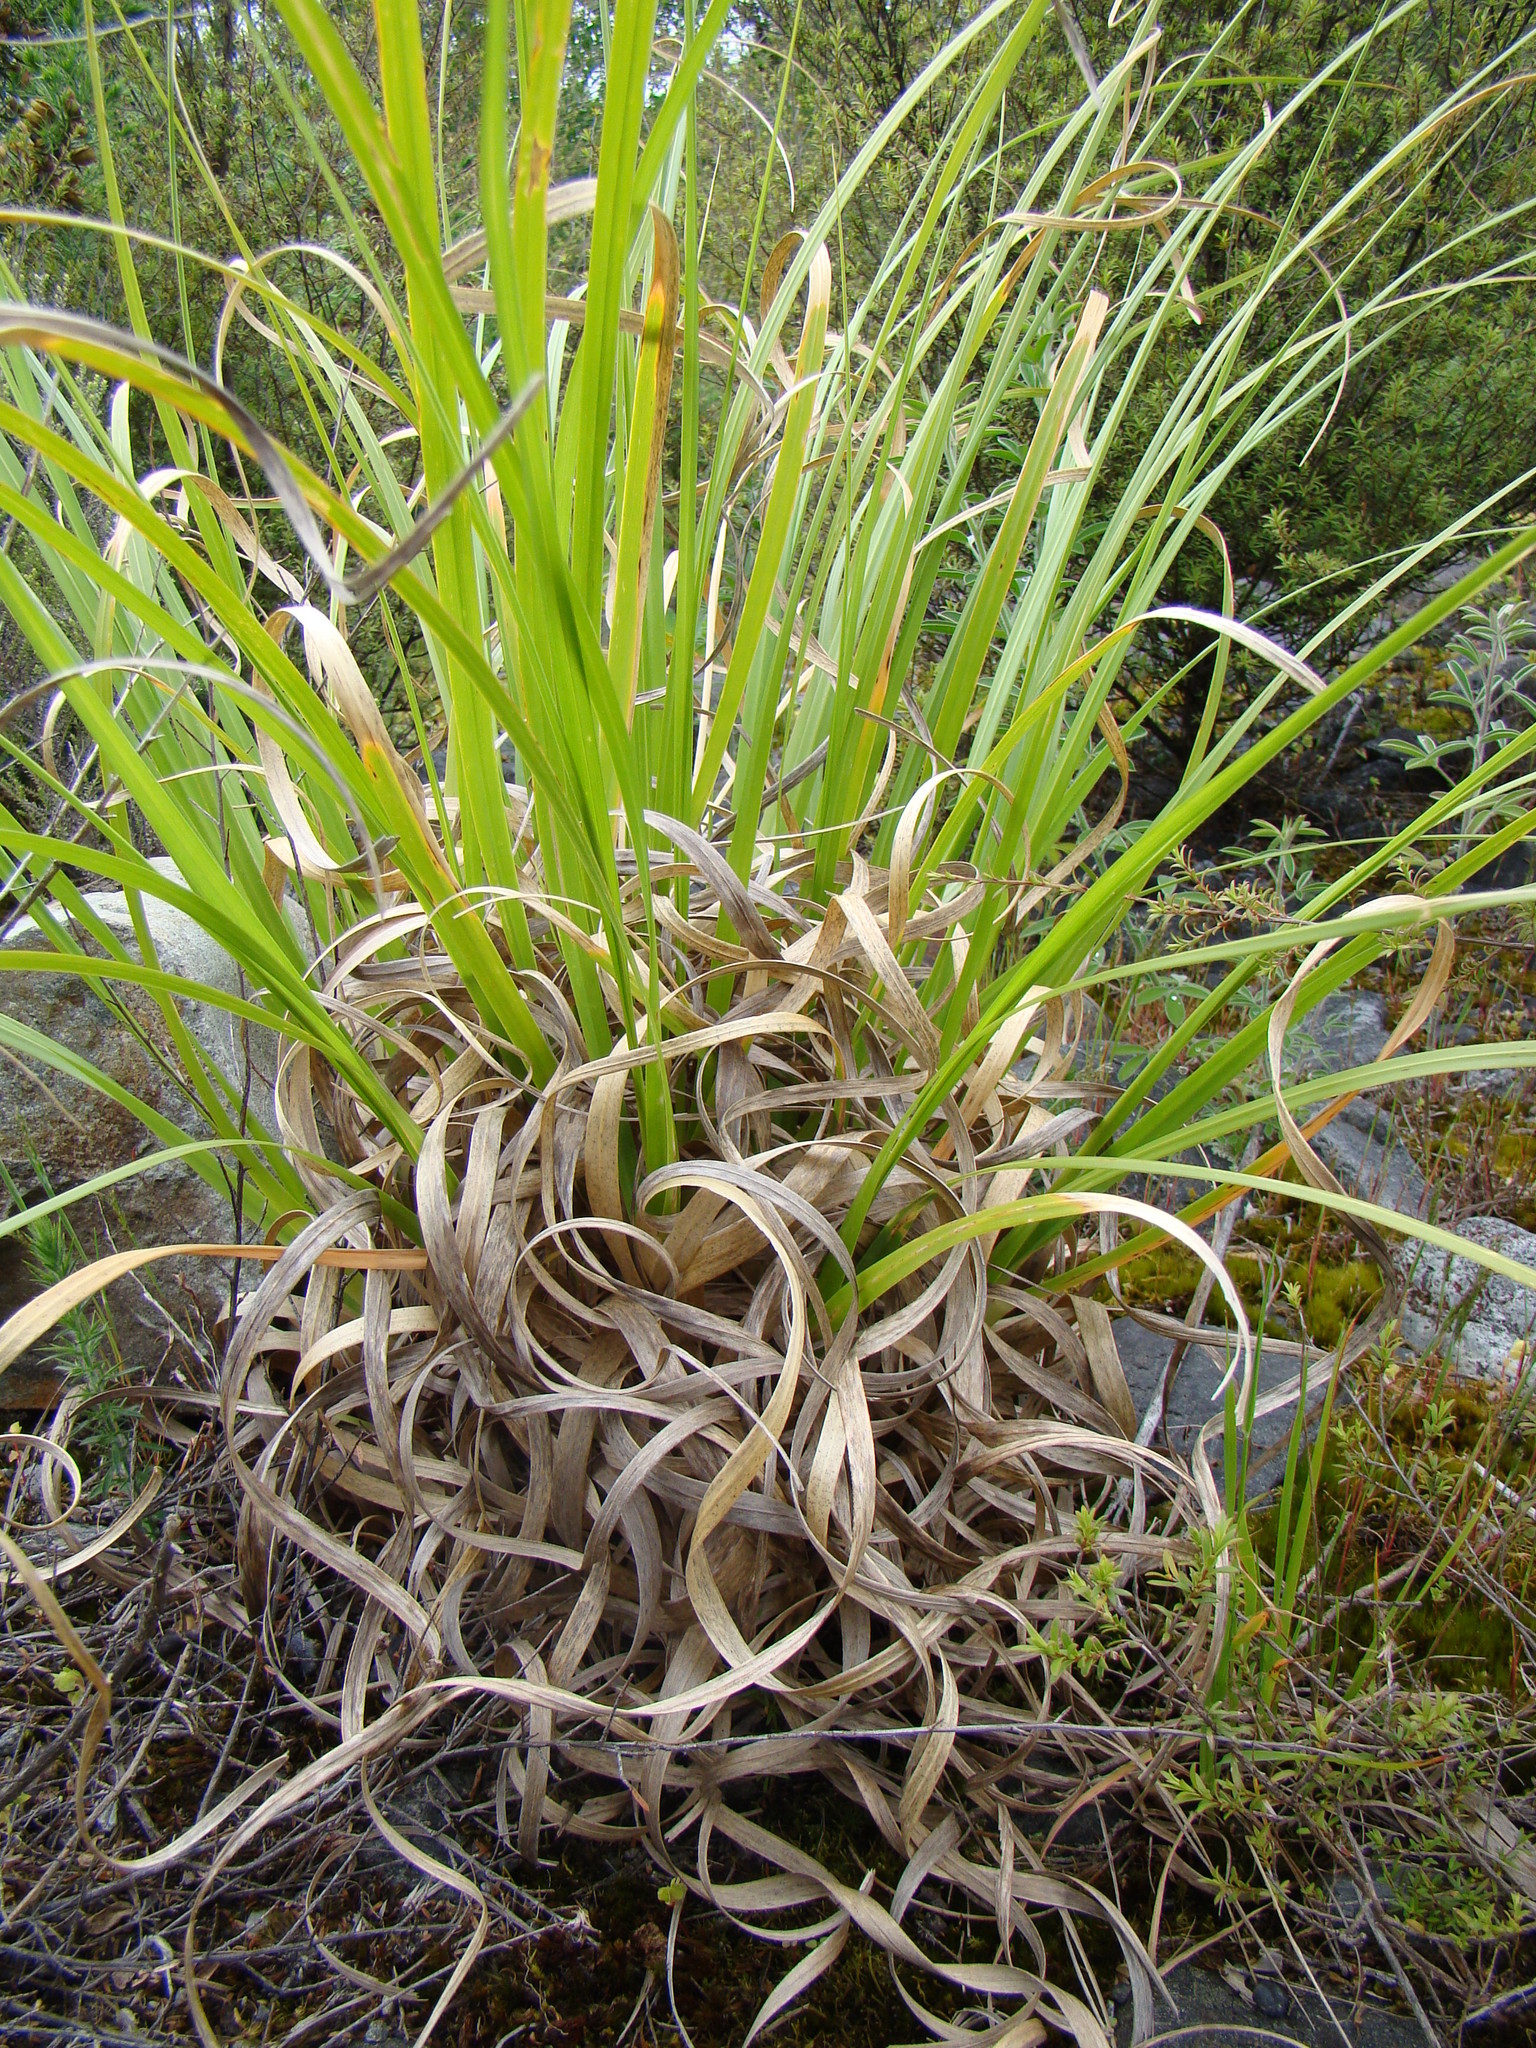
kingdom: Plantae
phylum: Tracheophyta
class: Liliopsida
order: Poales
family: Poaceae
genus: Cortaderia
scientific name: Cortaderia selloana
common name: Uruguayan pampas grass
